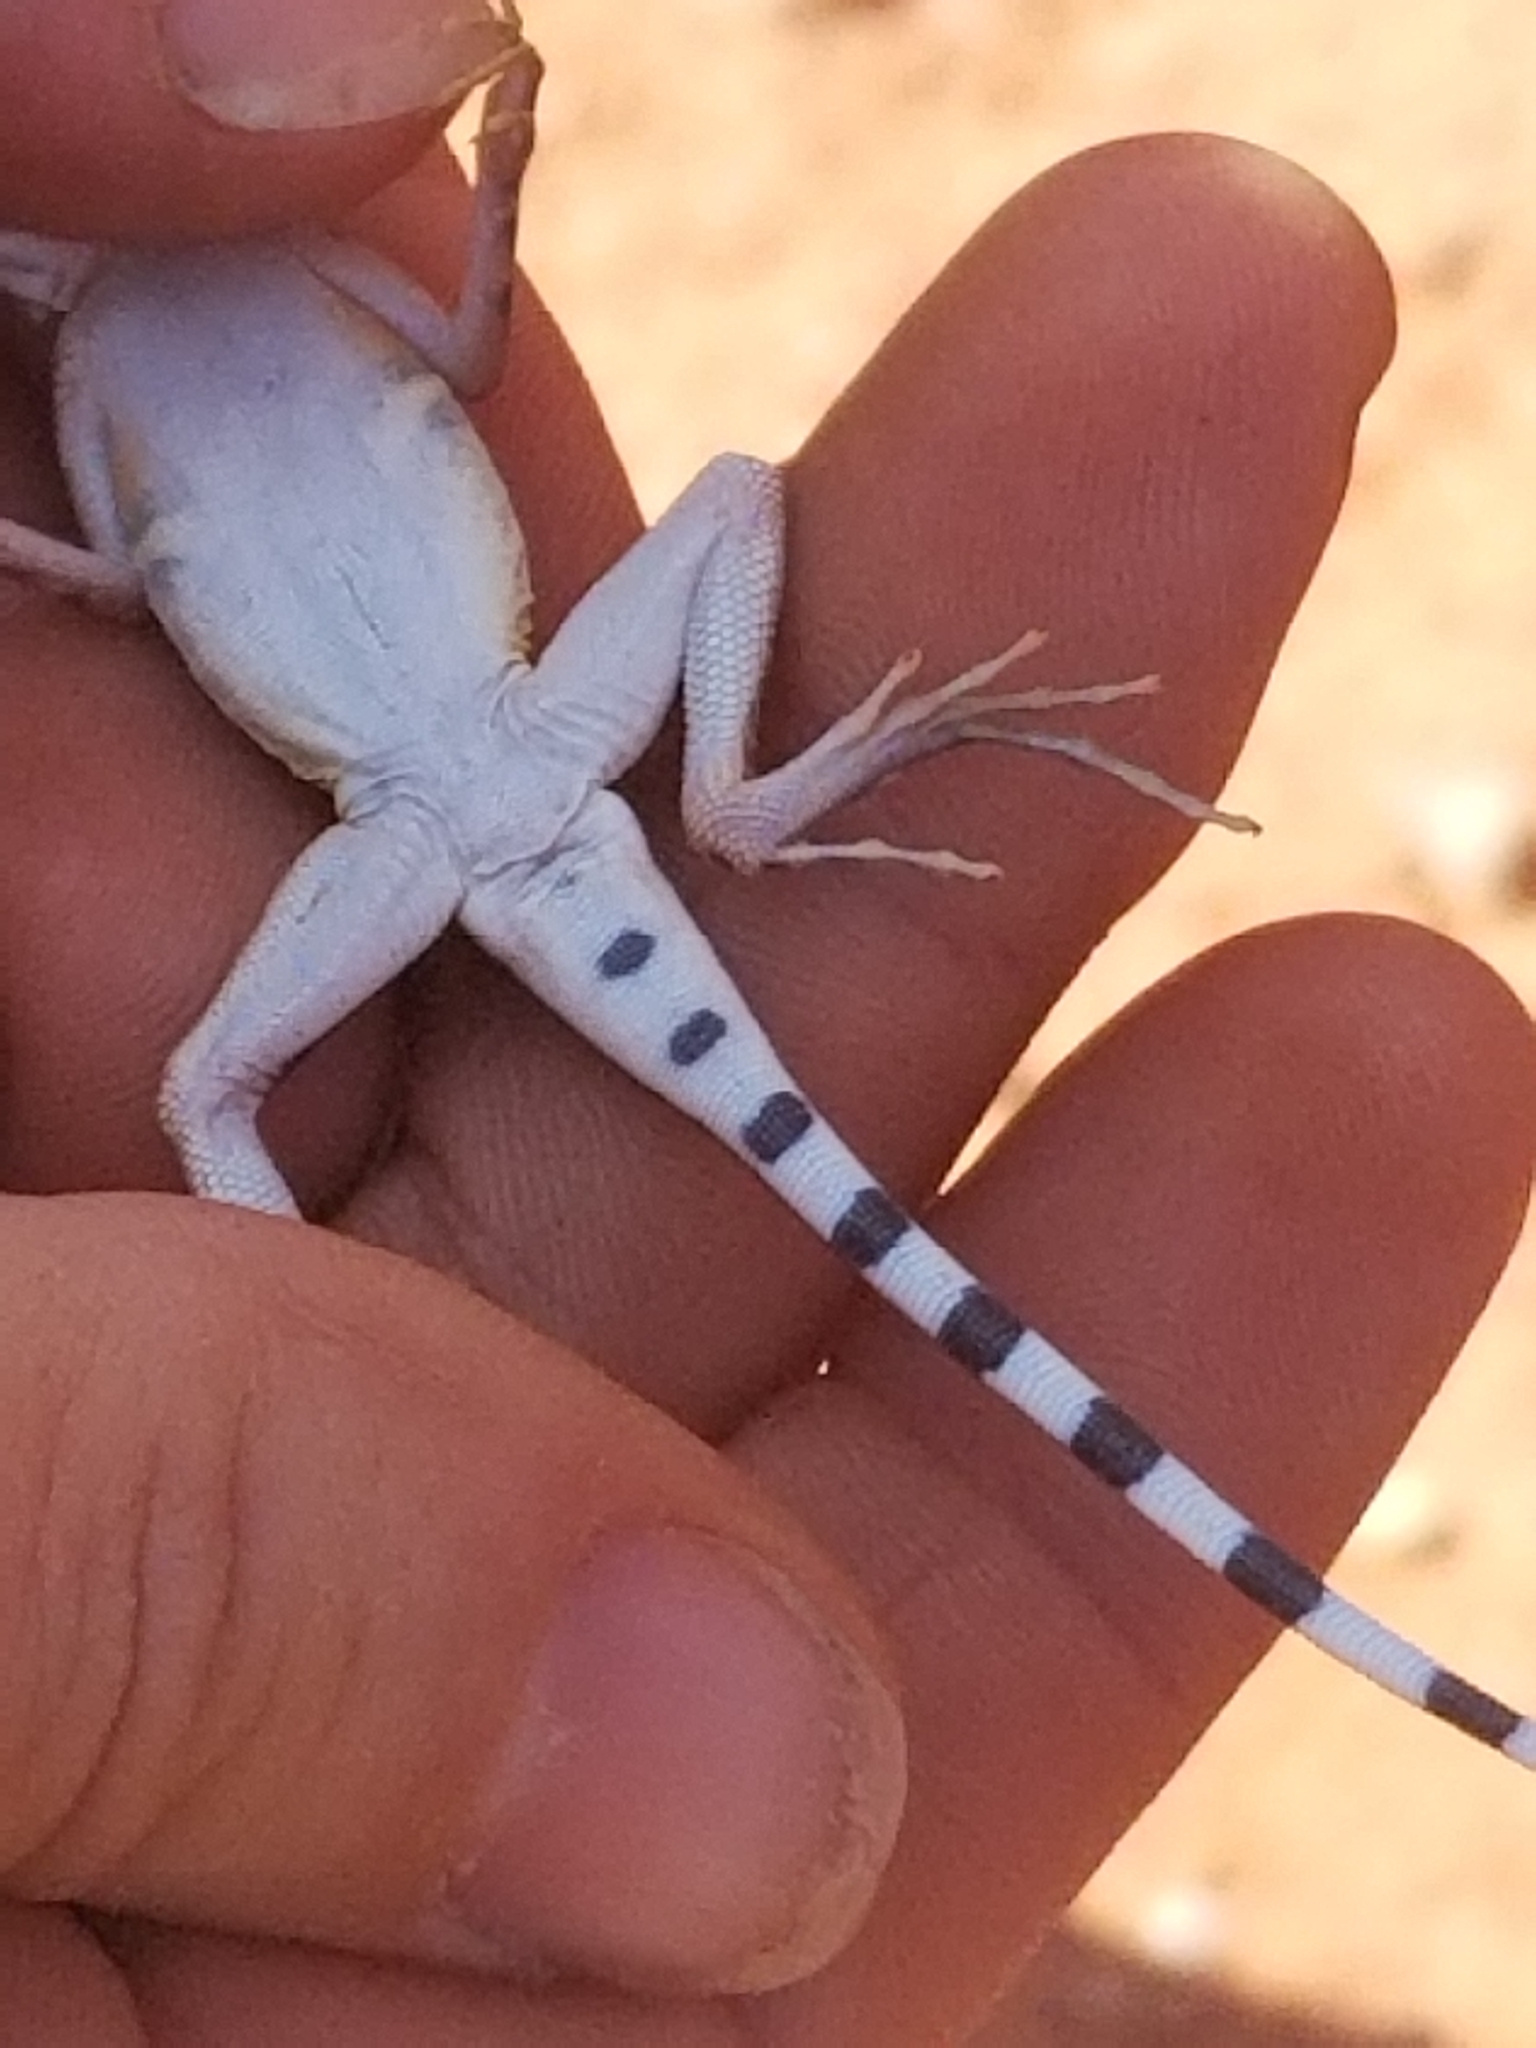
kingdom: Animalia
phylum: Chordata
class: Squamata
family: Phrynosomatidae
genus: Callisaurus
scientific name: Callisaurus draconoides
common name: Zebra-tailed lizard
